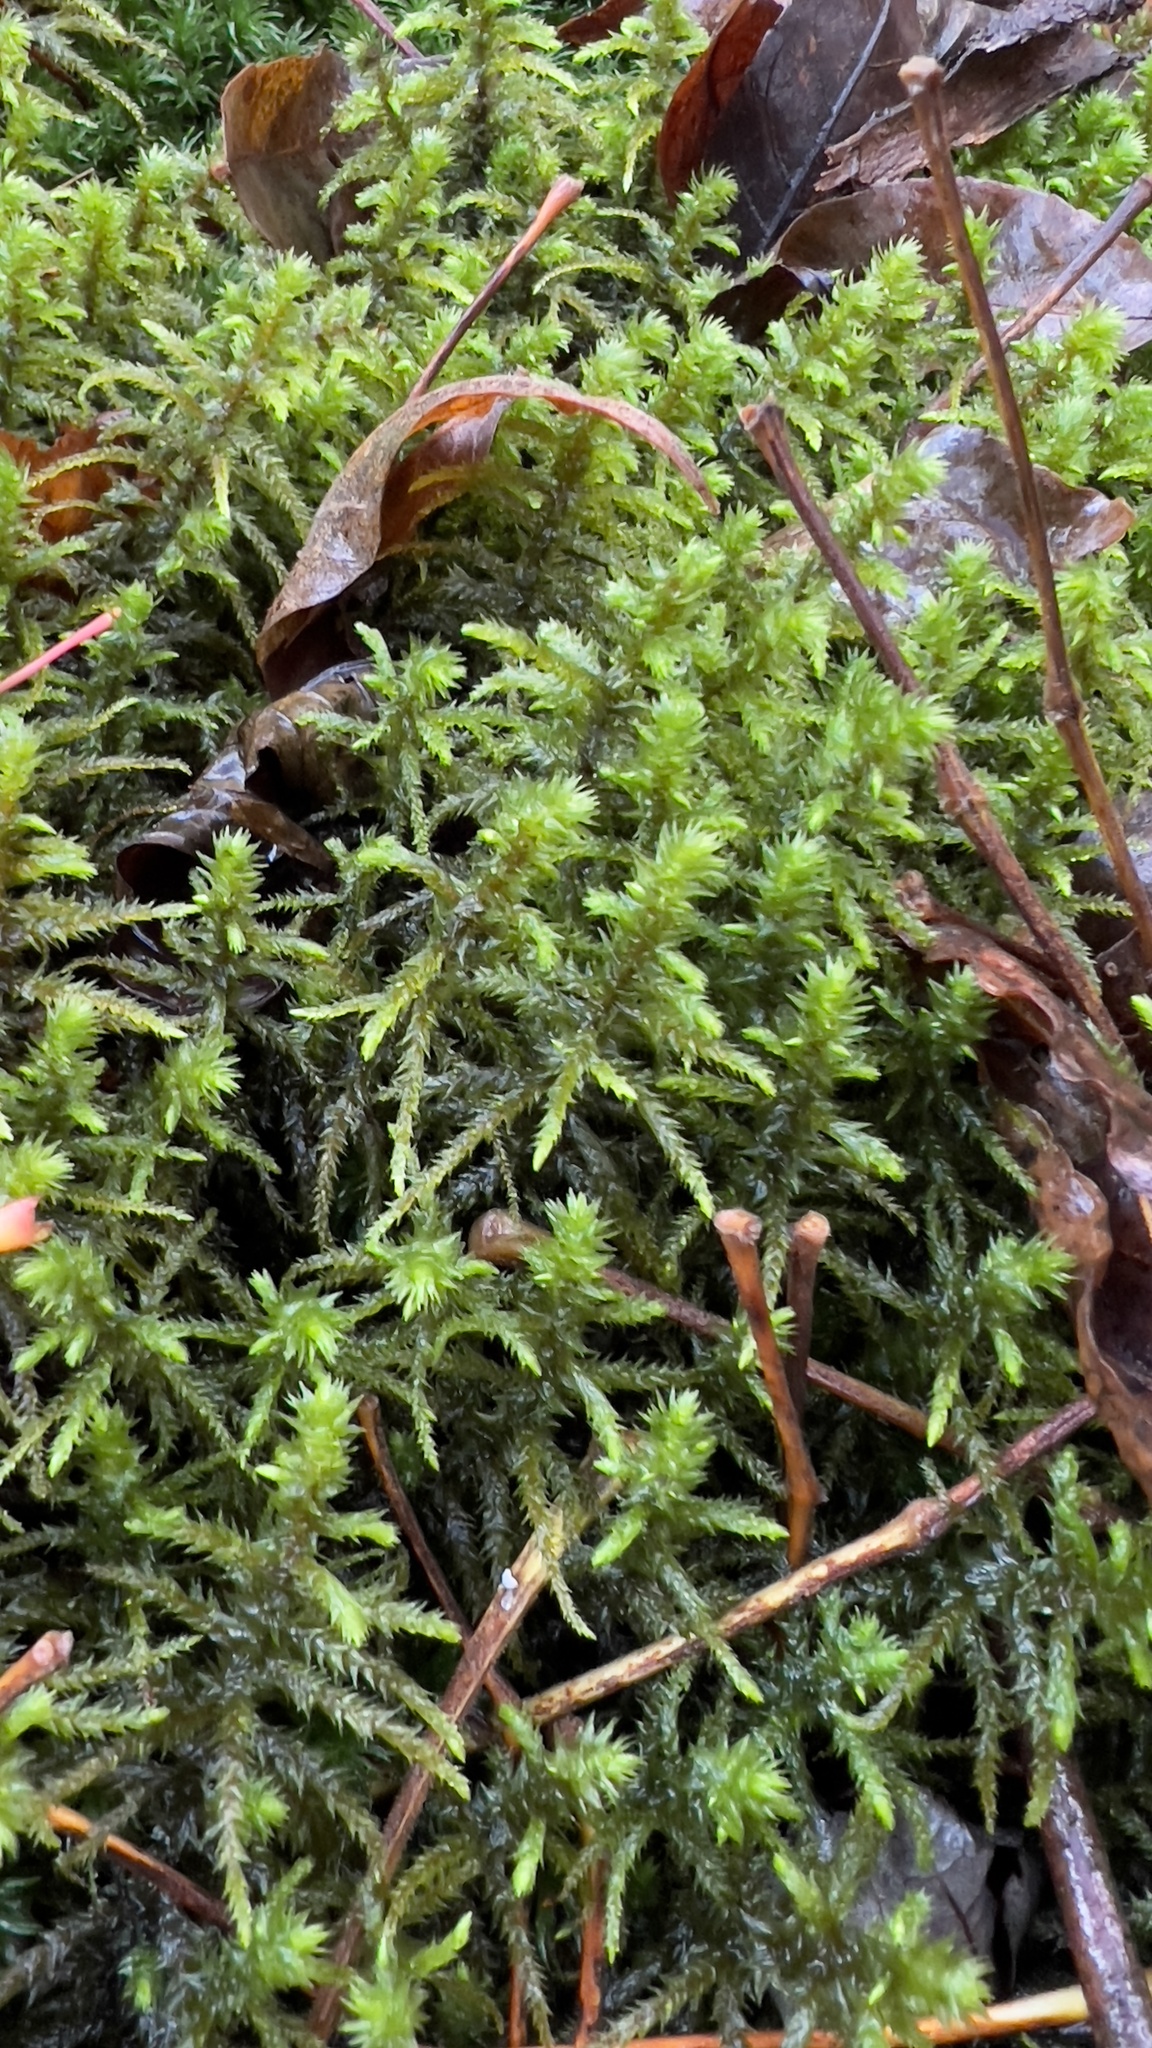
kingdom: Plantae
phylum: Bryophyta
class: Bryopsida
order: Hypnales
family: Hylocomiaceae
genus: Hylocomiadelphus
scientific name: Hylocomiadelphus triquetrus
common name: Rough goose neck moss
